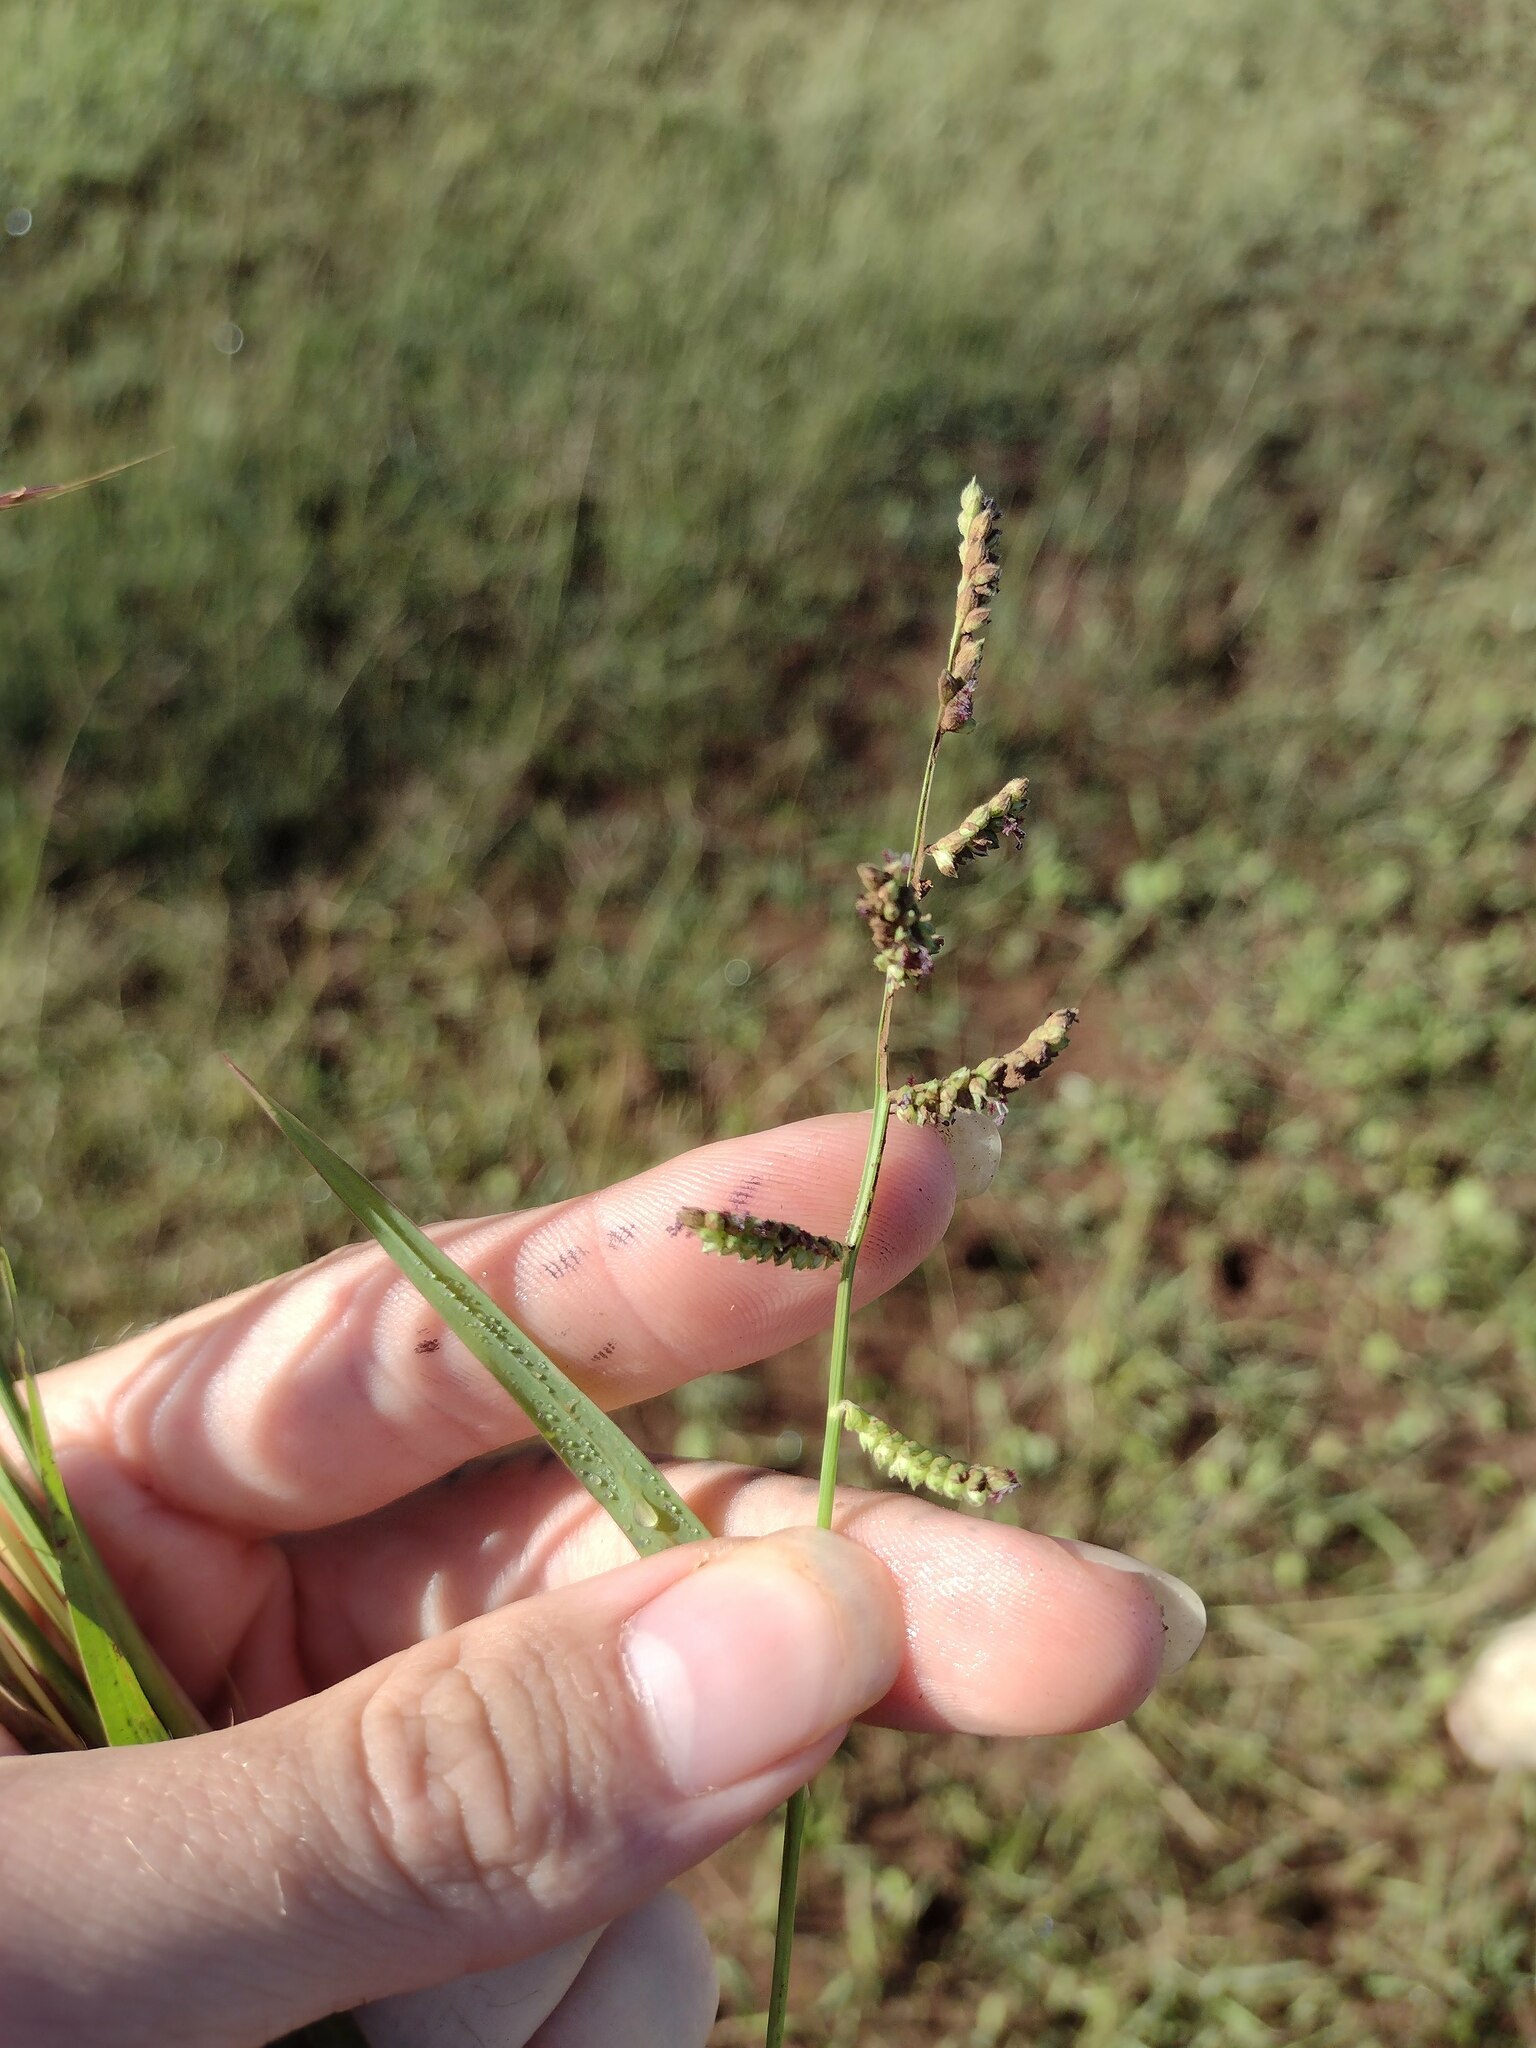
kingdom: Plantae
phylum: Tracheophyta
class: Liliopsida
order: Poales
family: Poaceae
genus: Echinochloa
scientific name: Echinochloa colonum
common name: Jungle rice
